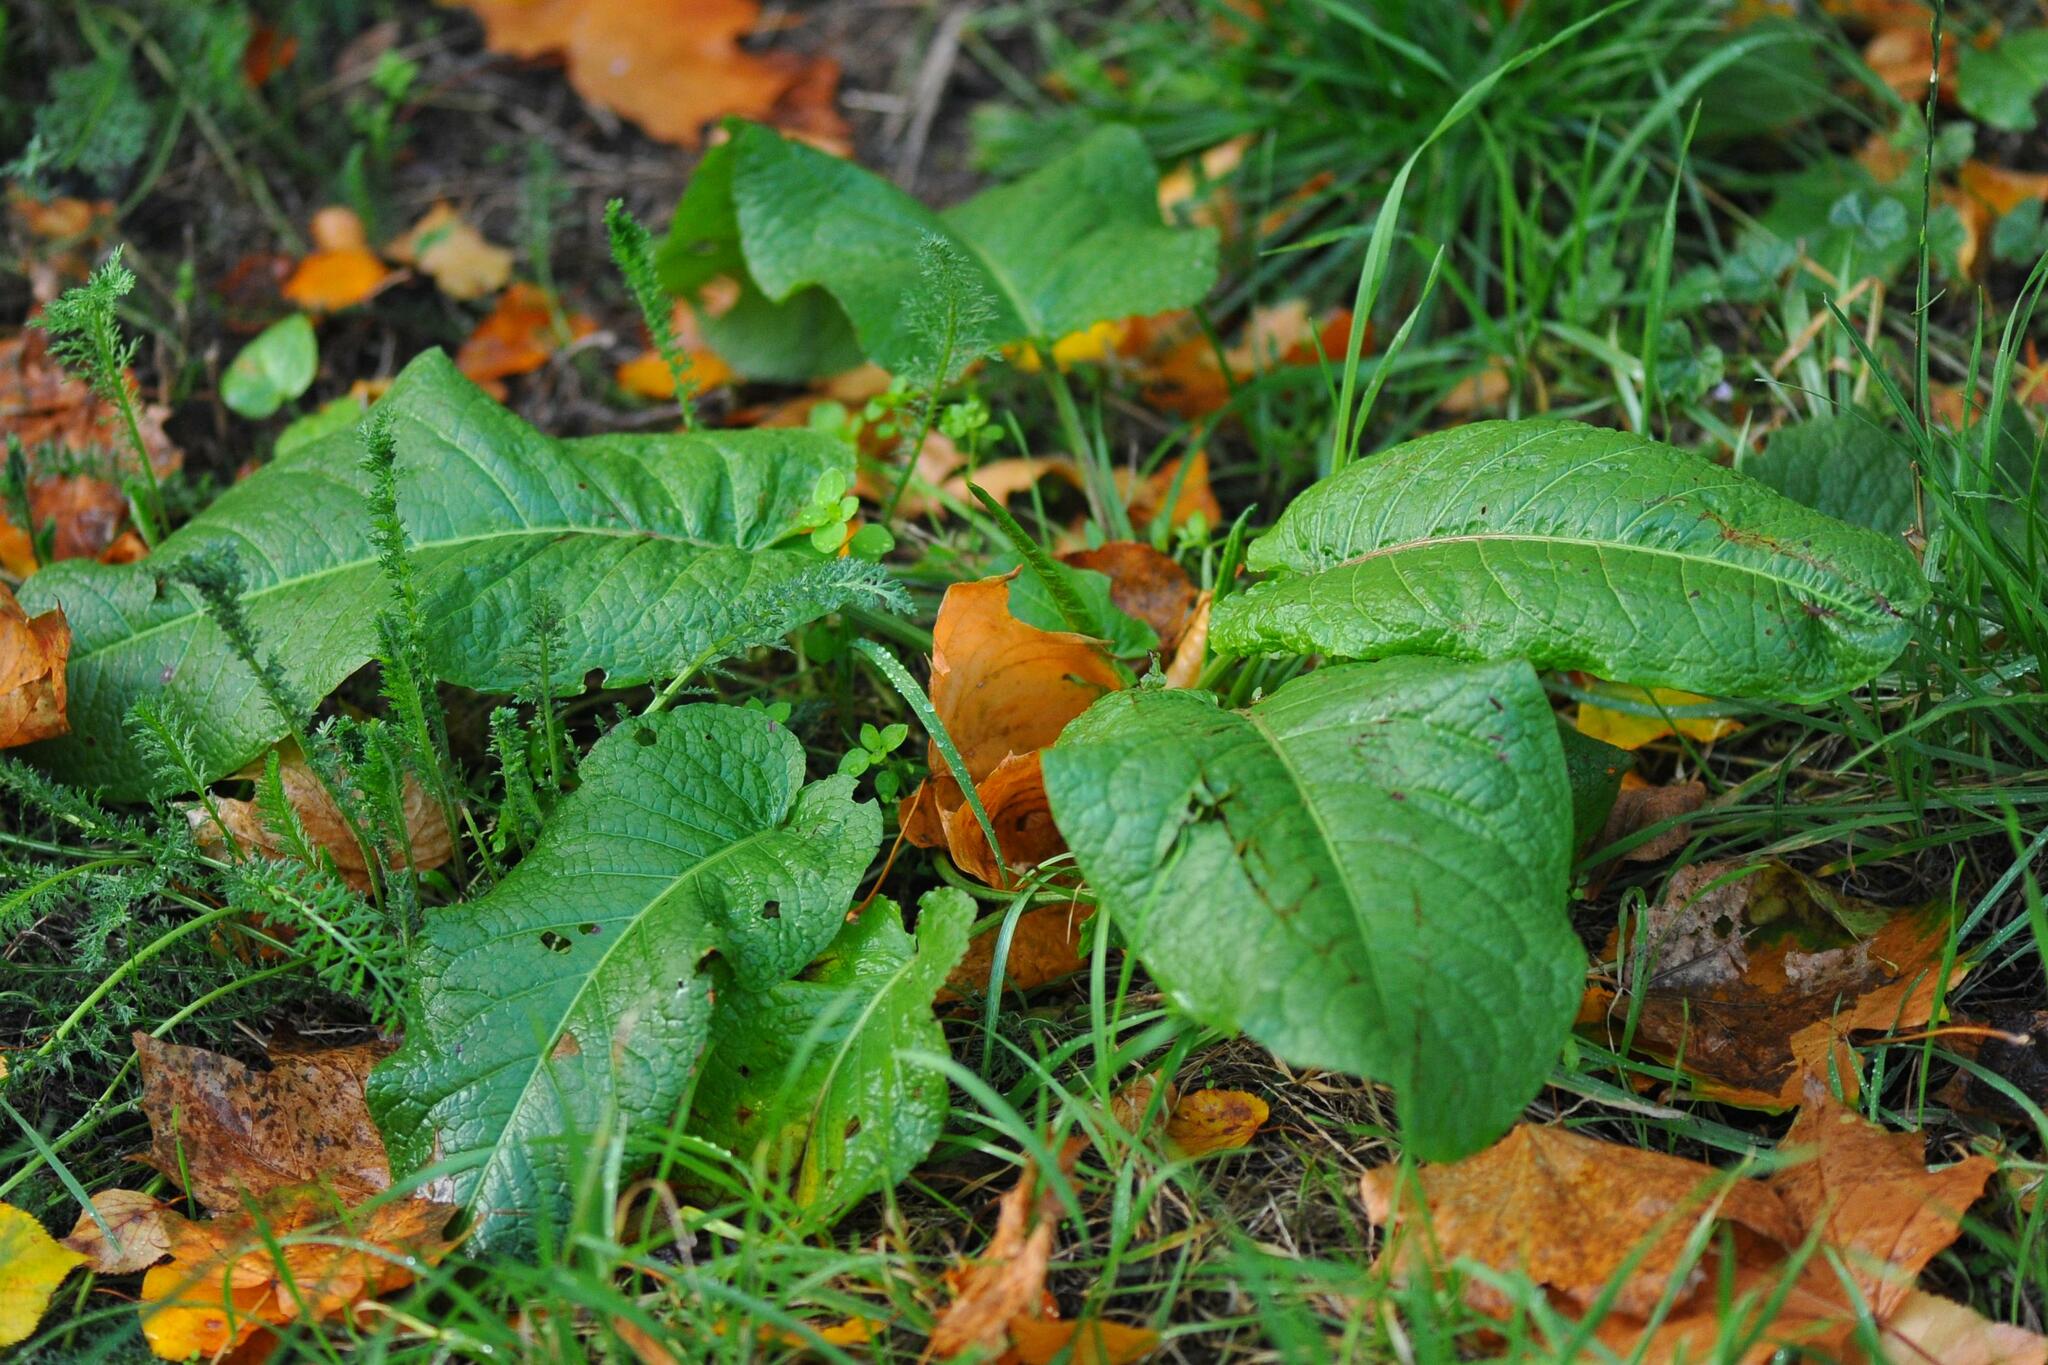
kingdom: Plantae
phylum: Tracheophyta
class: Magnoliopsida
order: Caryophyllales
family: Polygonaceae
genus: Rumex
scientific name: Rumex obtusifolius
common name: Bitter dock
